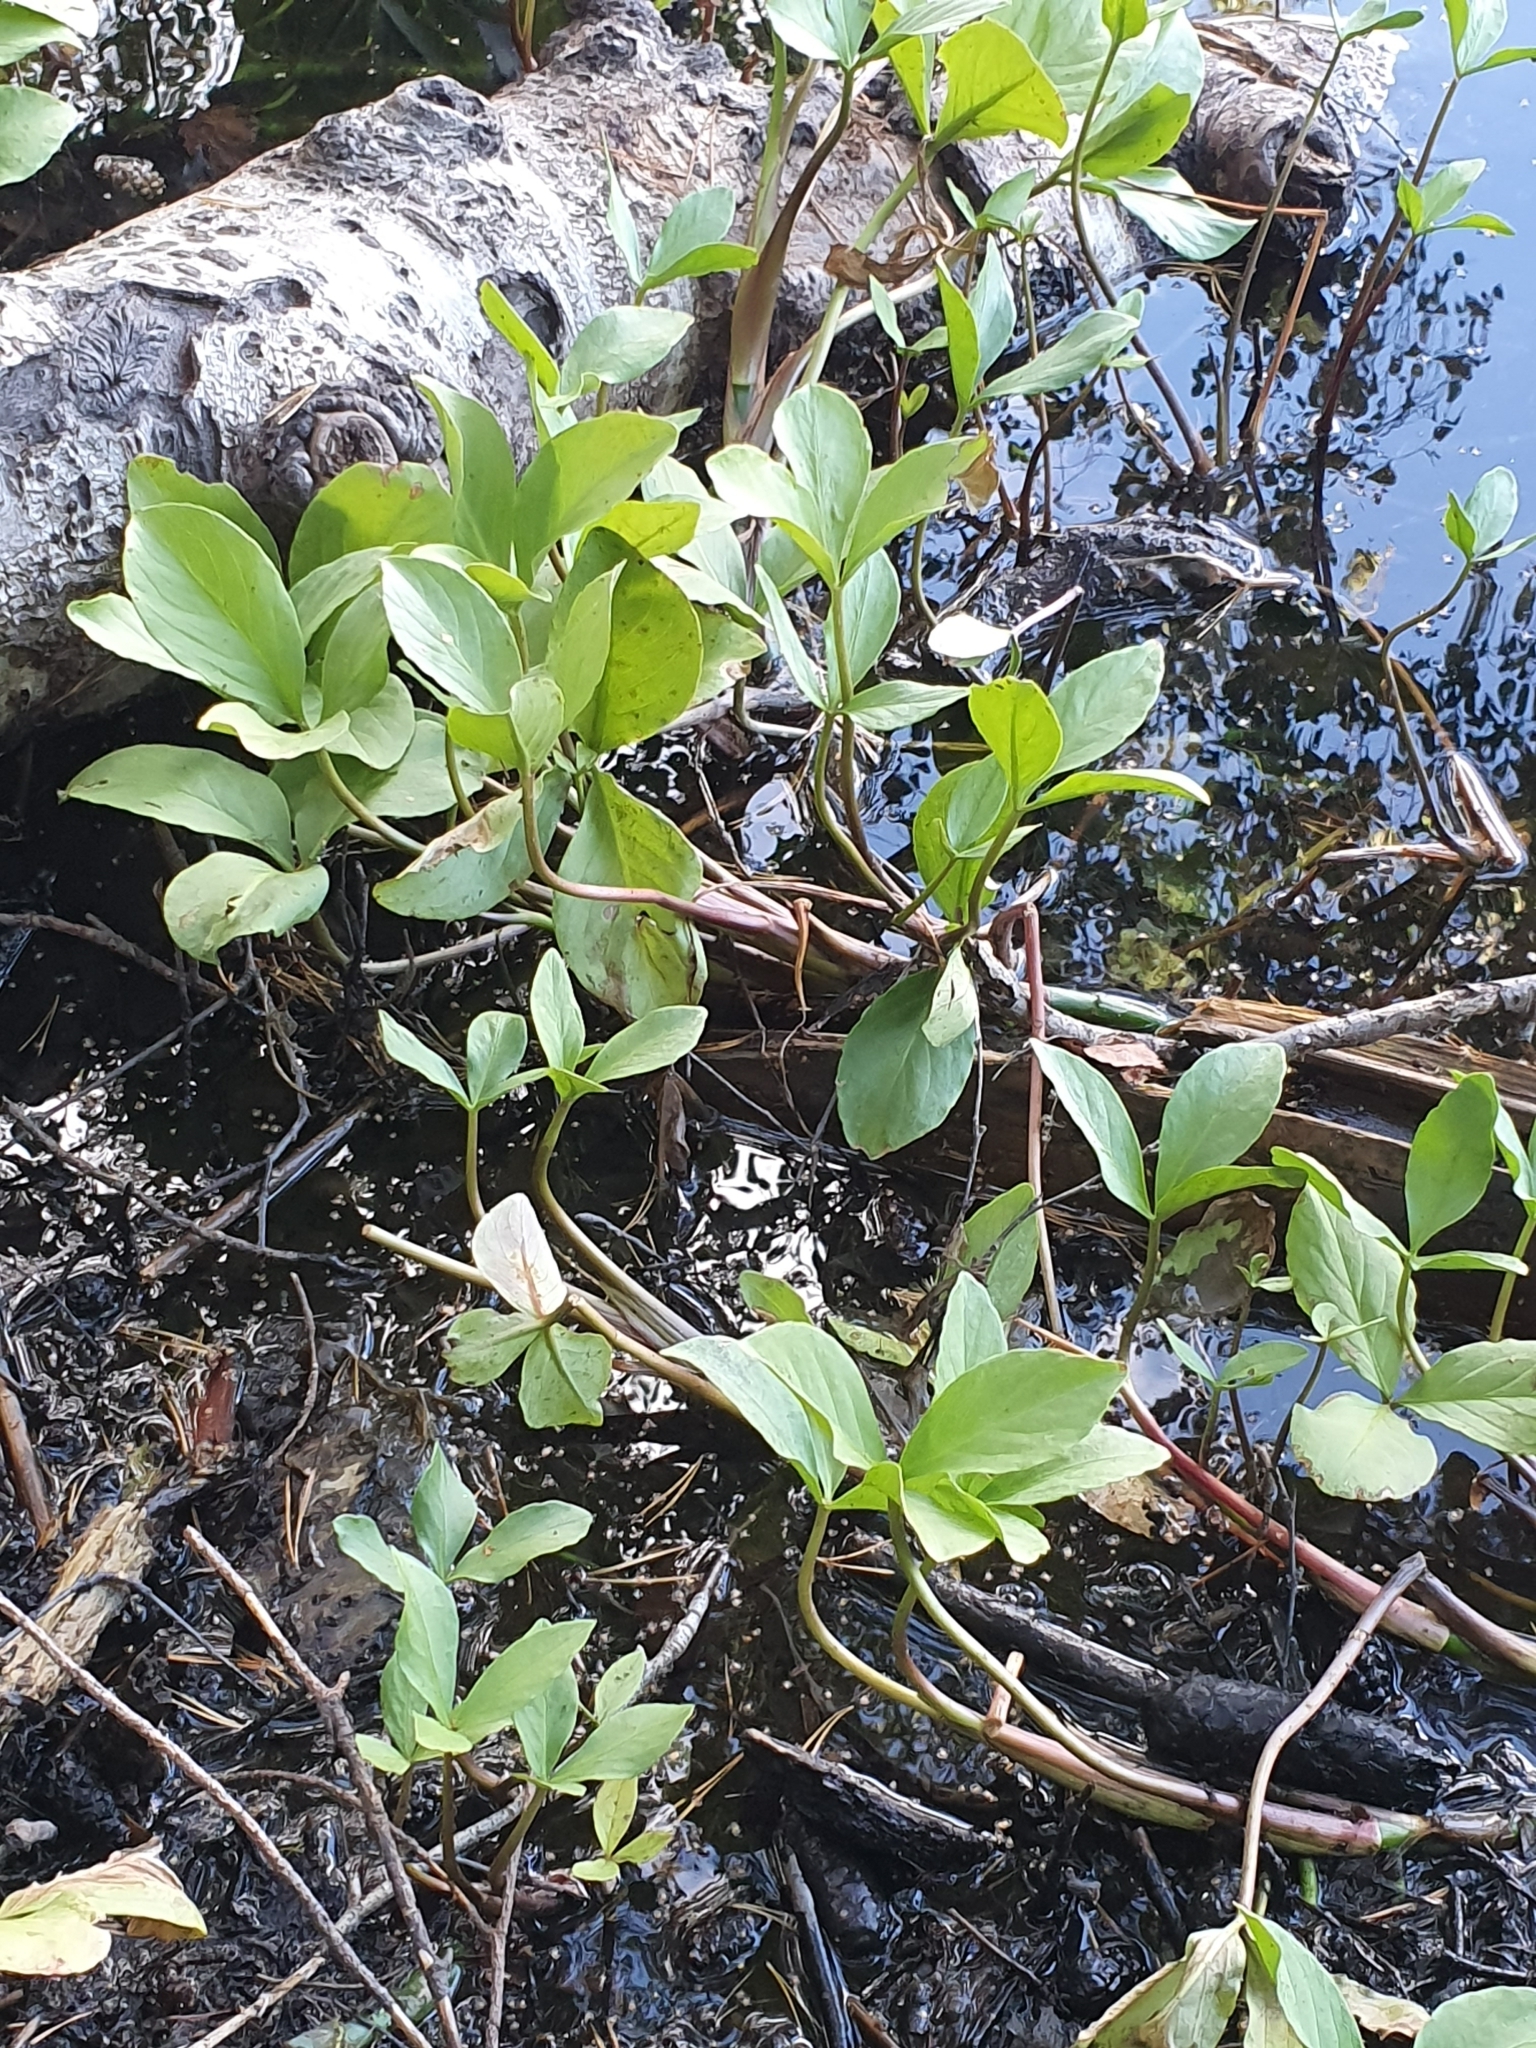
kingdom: Plantae
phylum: Tracheophyta
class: Magnoliopsida
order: Asterales
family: Menyanthaceae
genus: Menyanthes
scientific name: Menyanthes trifoliata
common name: Bogbean
